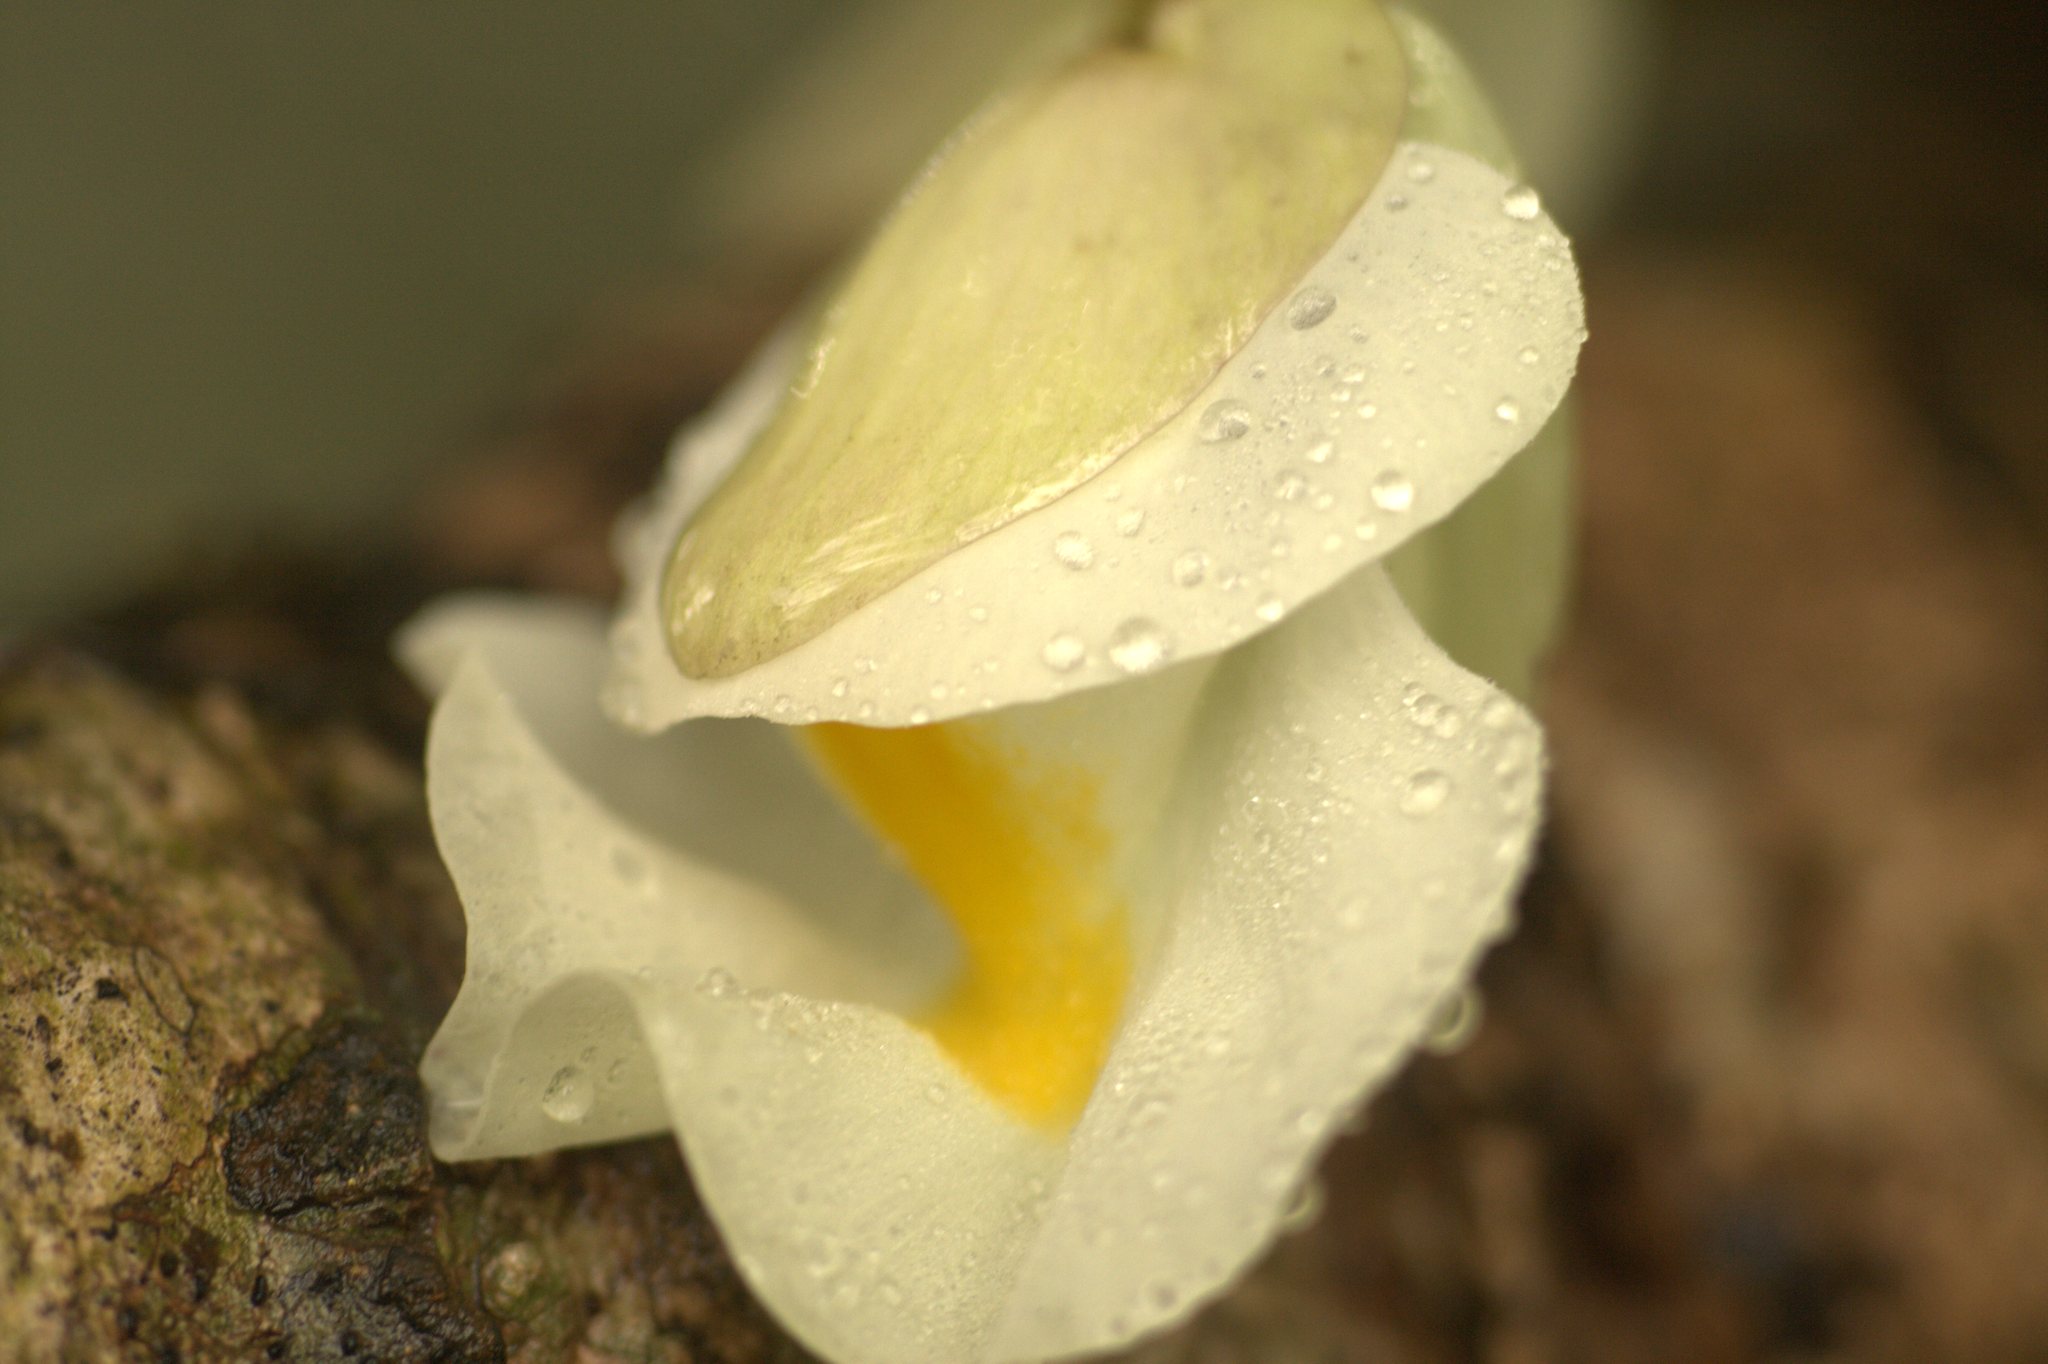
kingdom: Plantae
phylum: Tracheophyta
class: Magnoliopsida
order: Lamiales
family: Lentibulariaceae
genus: Utricularia
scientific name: Utricularia alpina
